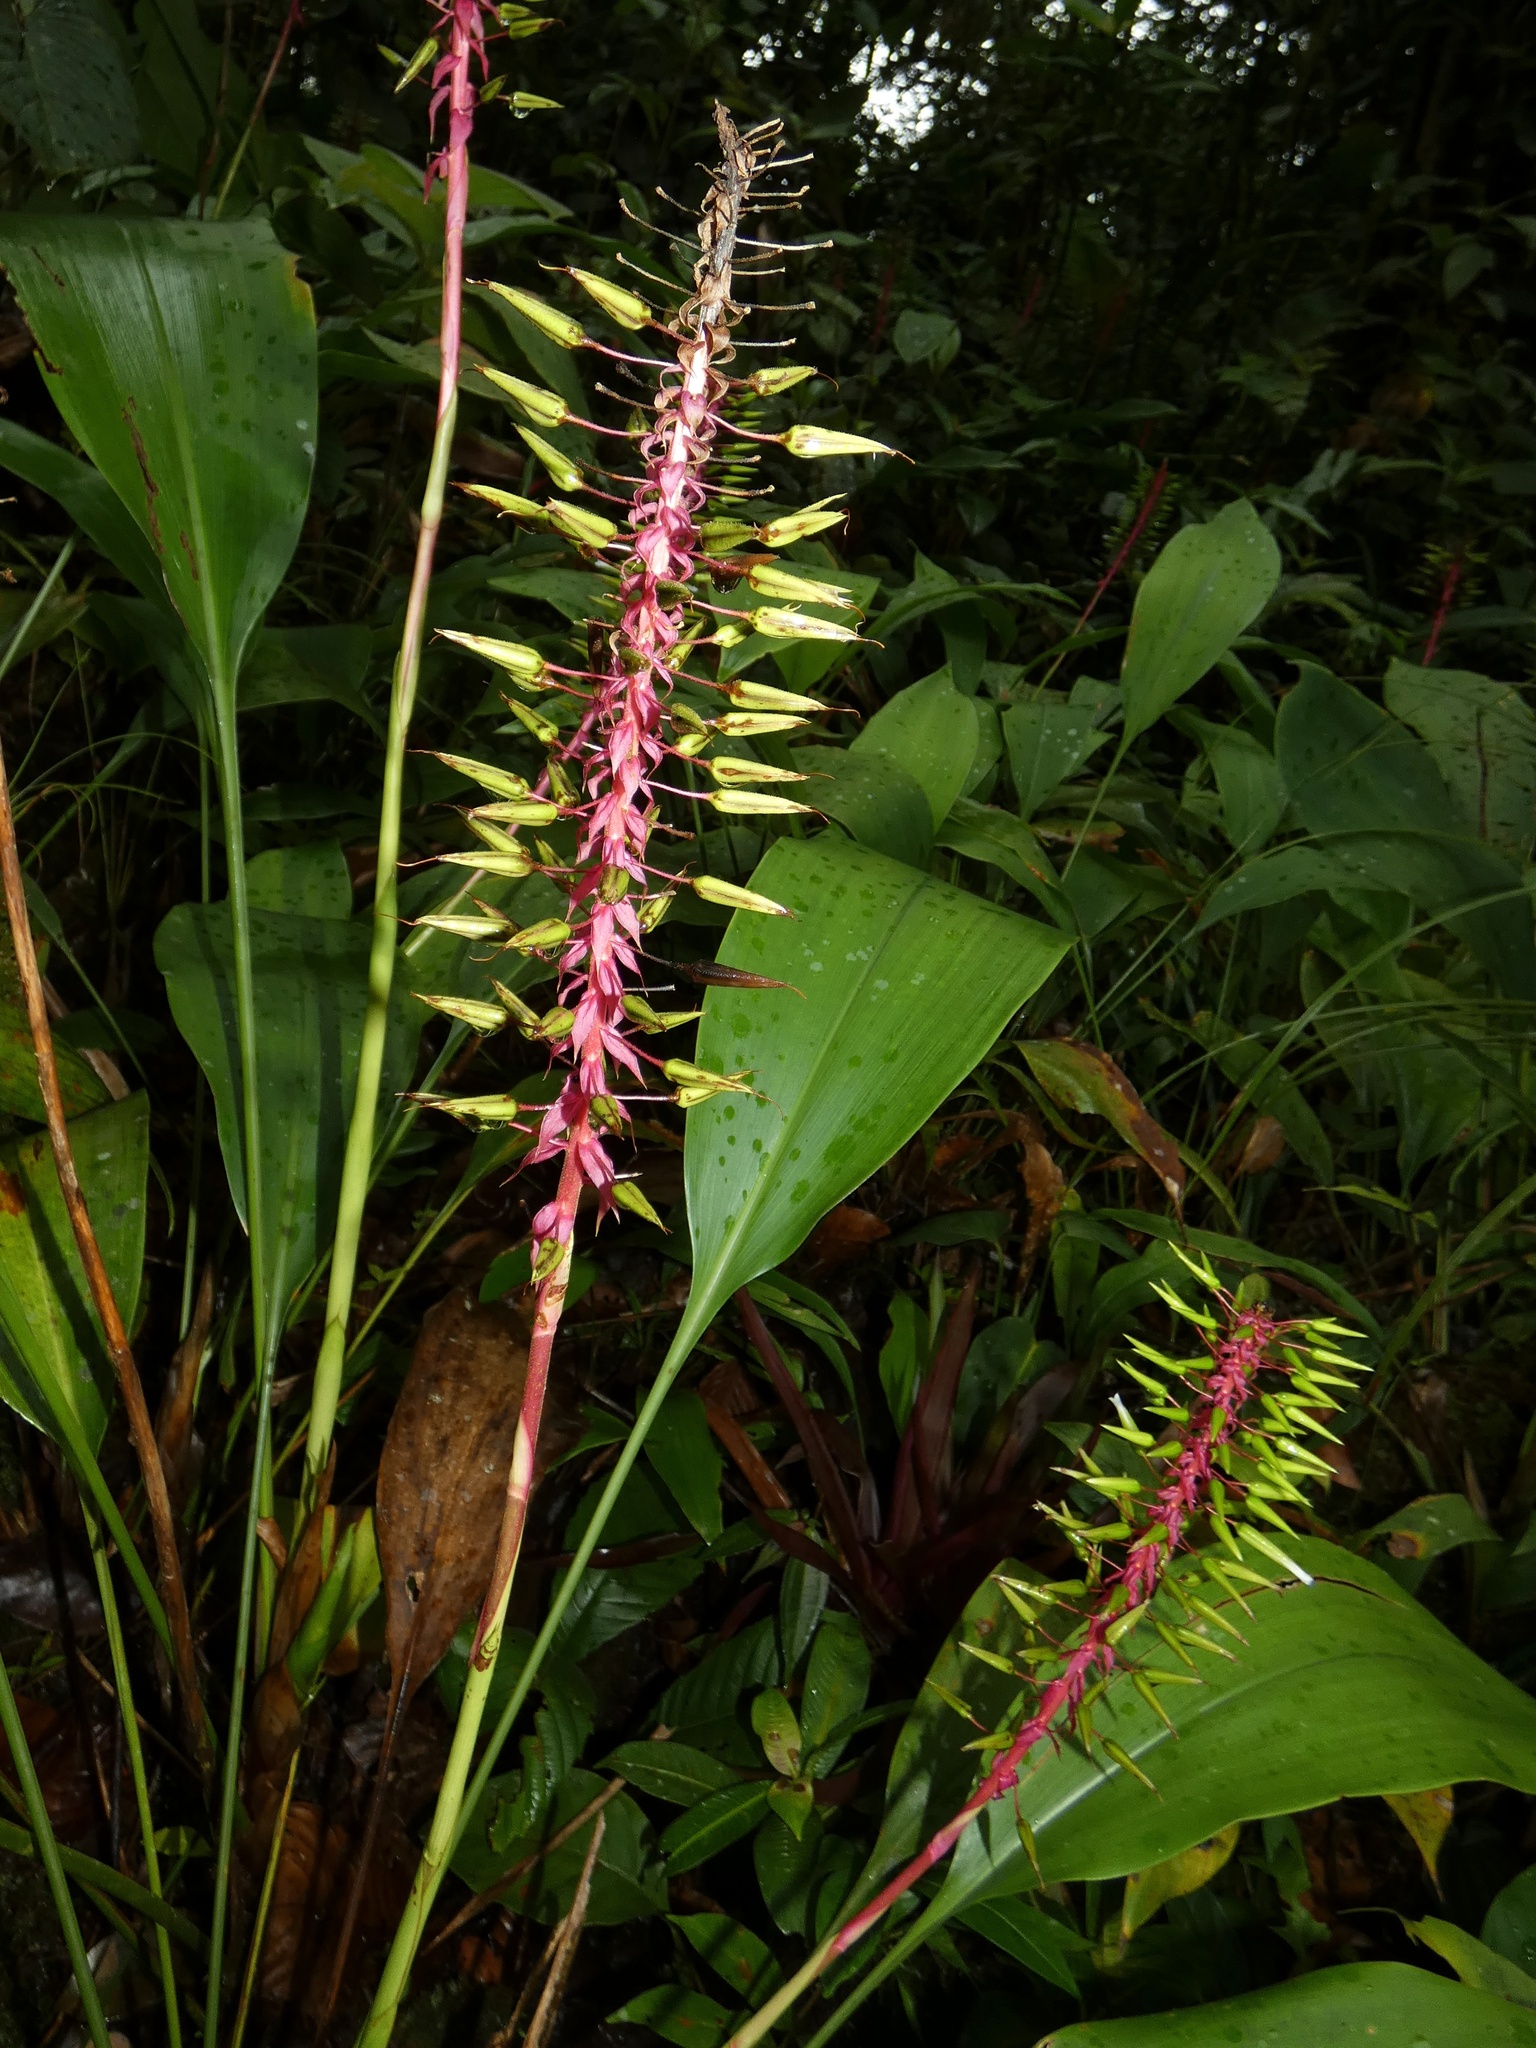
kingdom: Plantae
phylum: Tracheophyta
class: Liliopsida
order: Poales
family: Bromeliaceae
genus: Pitcairnia
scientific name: Pitcairnia multiflora
